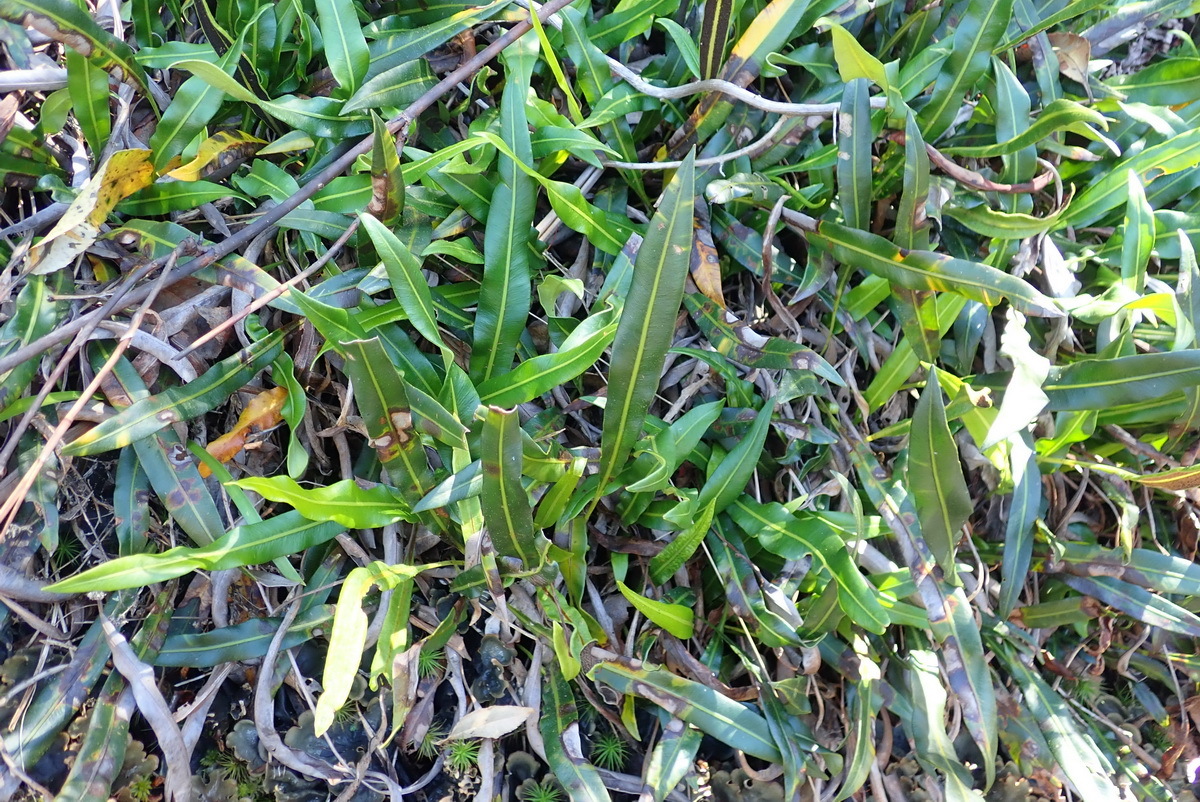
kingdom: Plantae
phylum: Tracheophyta
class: Polypodiopsida
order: Polypodiales
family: Dryopteridaceae
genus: Elaphoglossum
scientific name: Elaphoglossum acrostichoides
